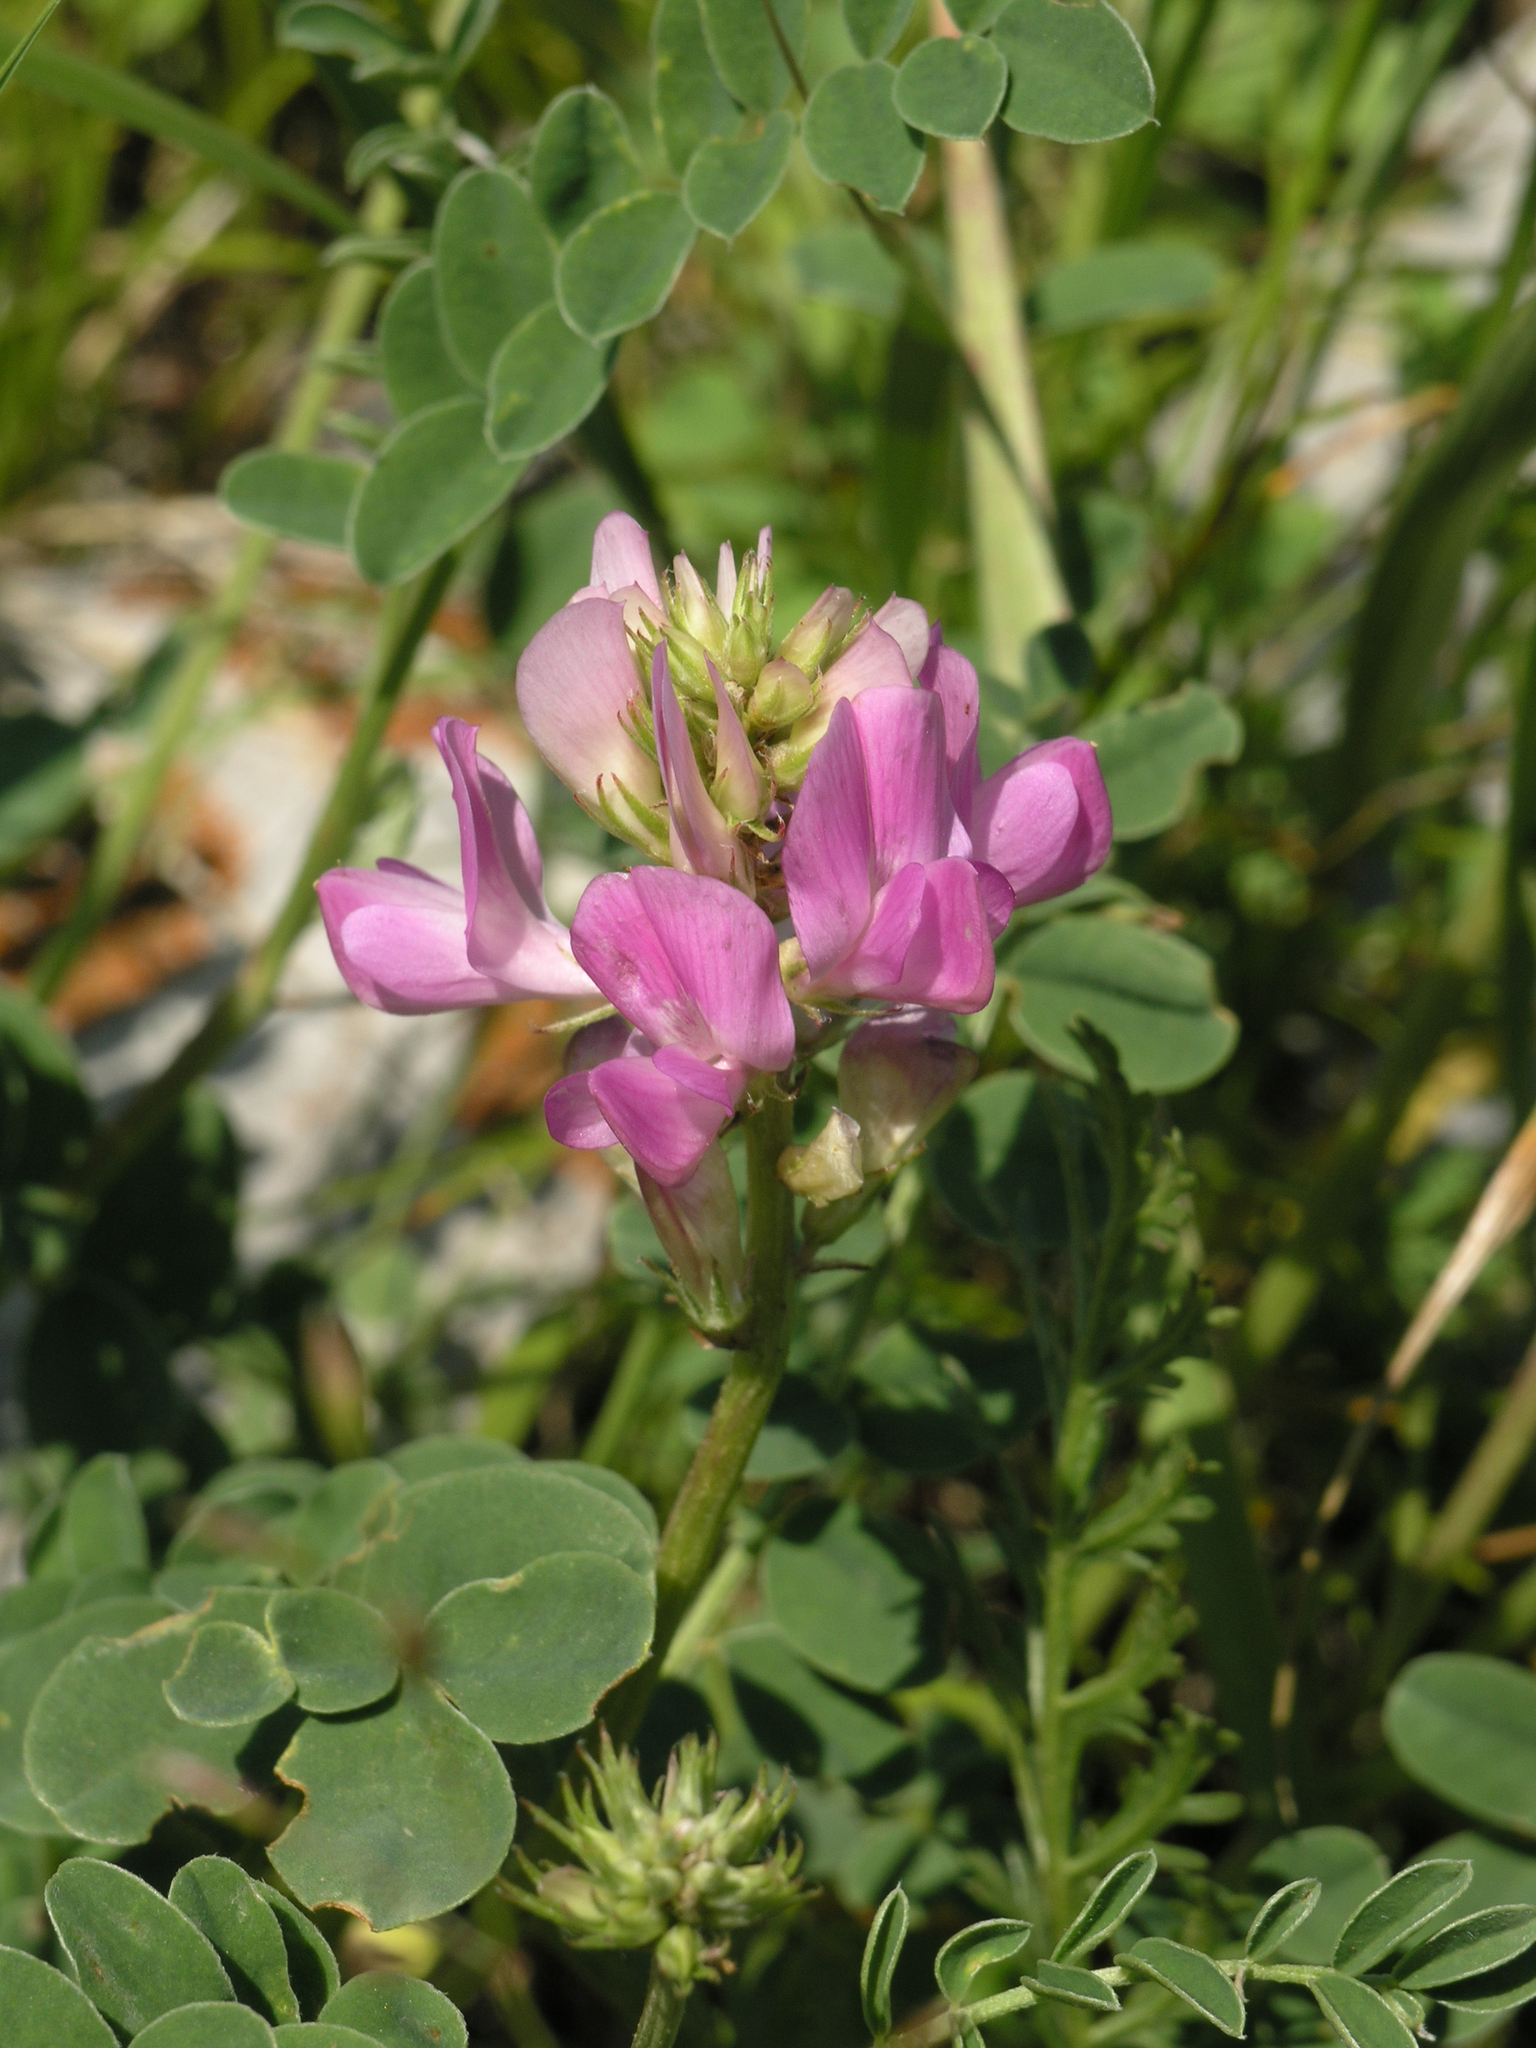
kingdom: Plantae
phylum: Tracheophyta
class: Magnoliopsida
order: Fabales
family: Fabaceae
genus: Hedysarum
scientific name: Hedysarum gmelinii
